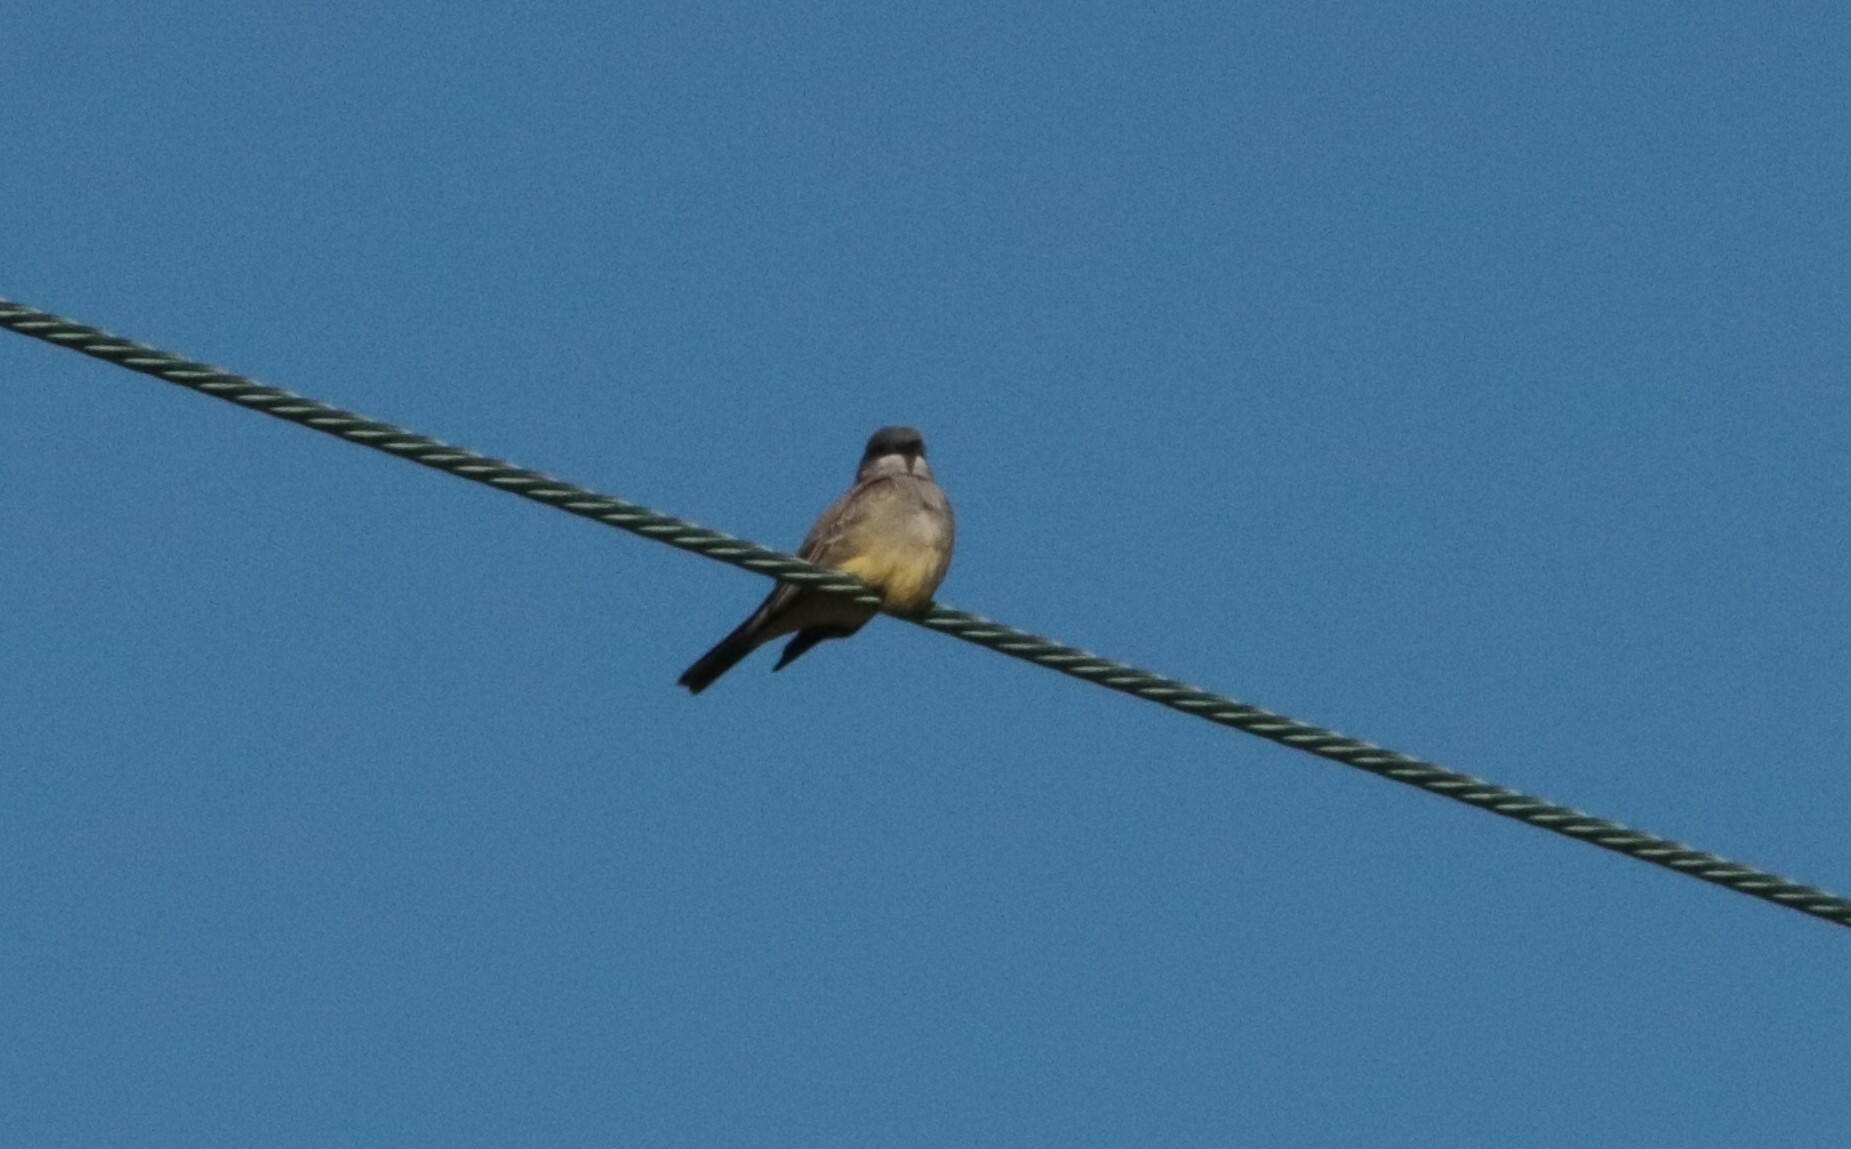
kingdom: Animalia
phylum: Chordata
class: Aves
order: Passeriformes
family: Tyrannidae
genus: Tyrannus
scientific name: Tyrannus vociferans
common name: Cassin's kingbird
